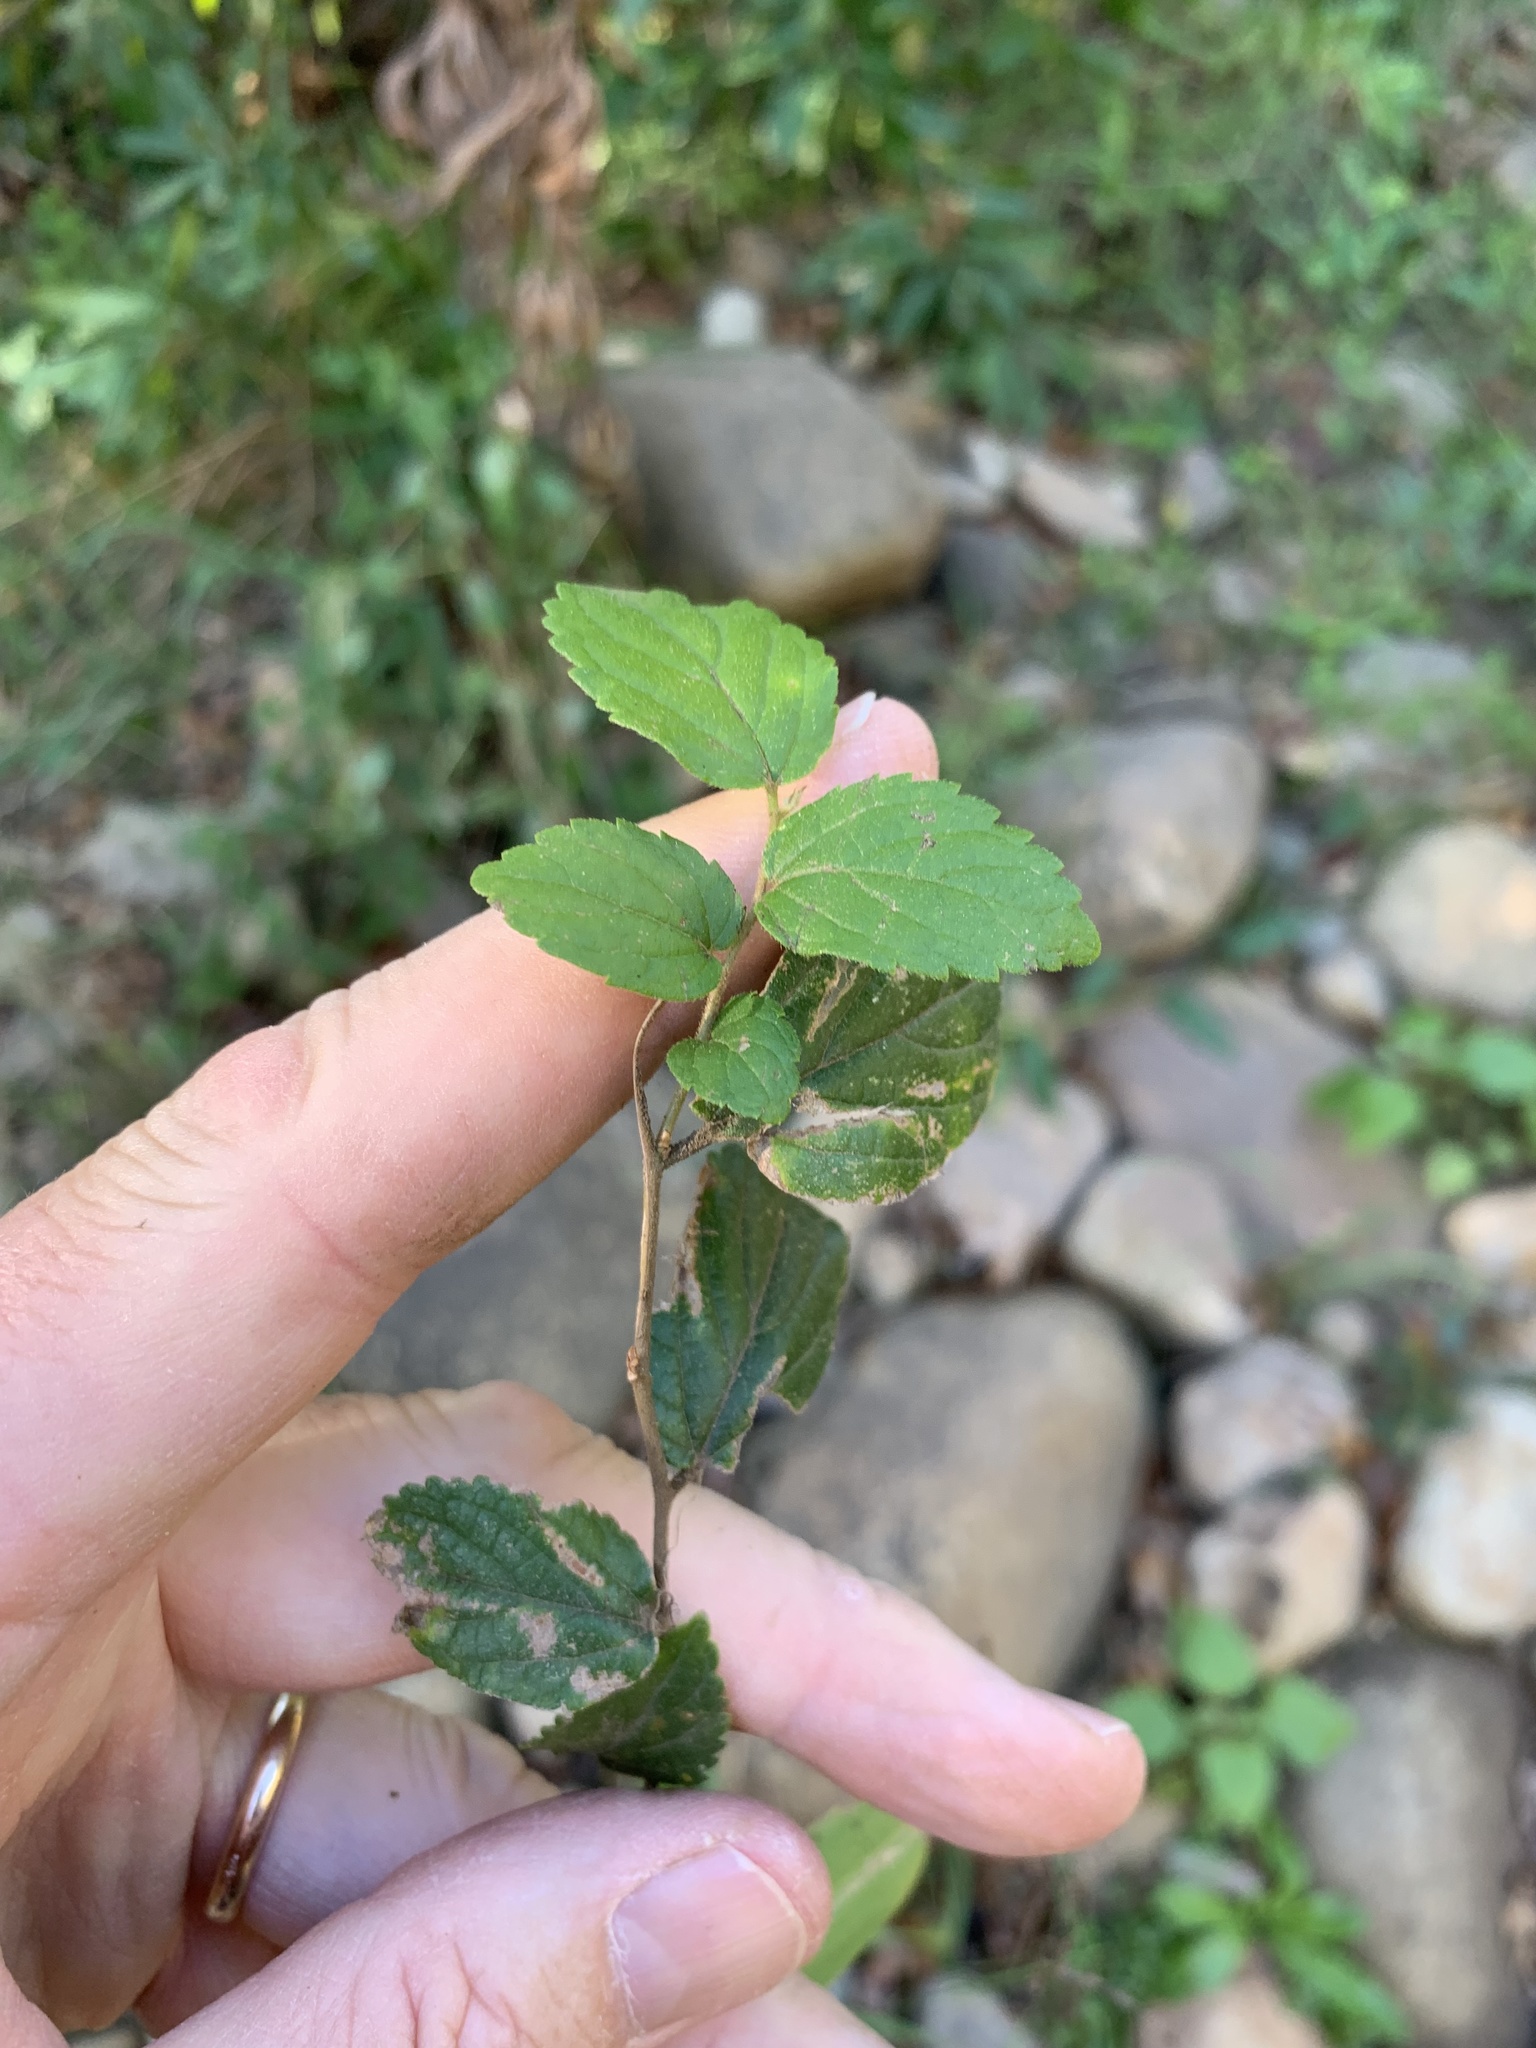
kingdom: Plantae
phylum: Tracheophyta
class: Magnoliopsida
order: Rosales
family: Cannabaceae
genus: Celtis
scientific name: Celtis sinensis
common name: Chinese hackberry
